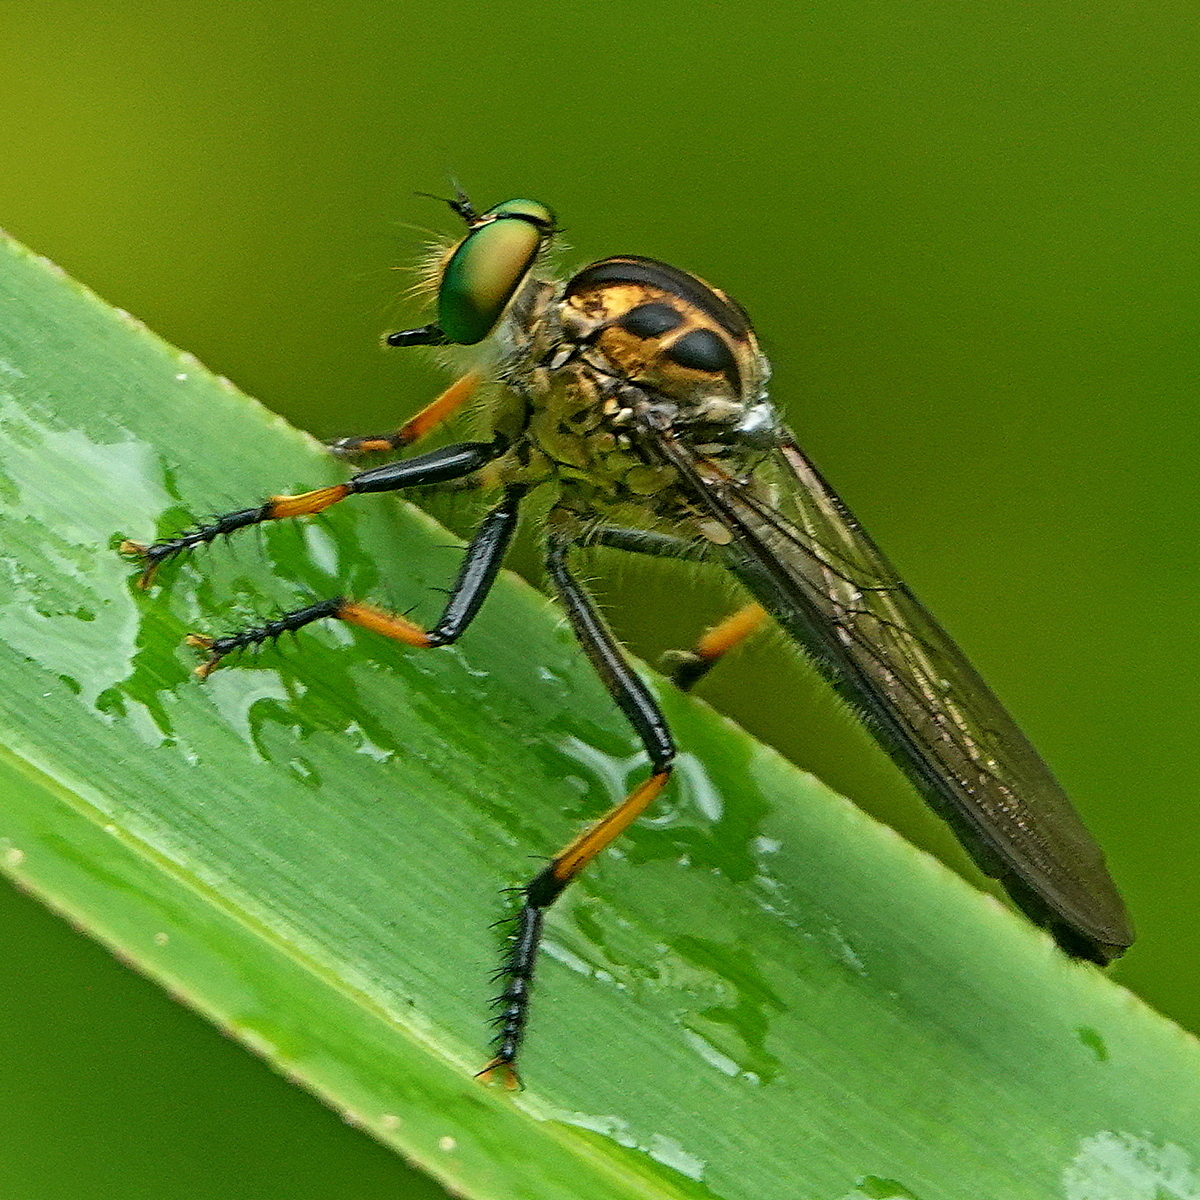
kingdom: Animalia
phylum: Arthropoda
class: Insecta
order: Diptera
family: Asilidae
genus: Ommatius
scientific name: Ommatius coeraebus
